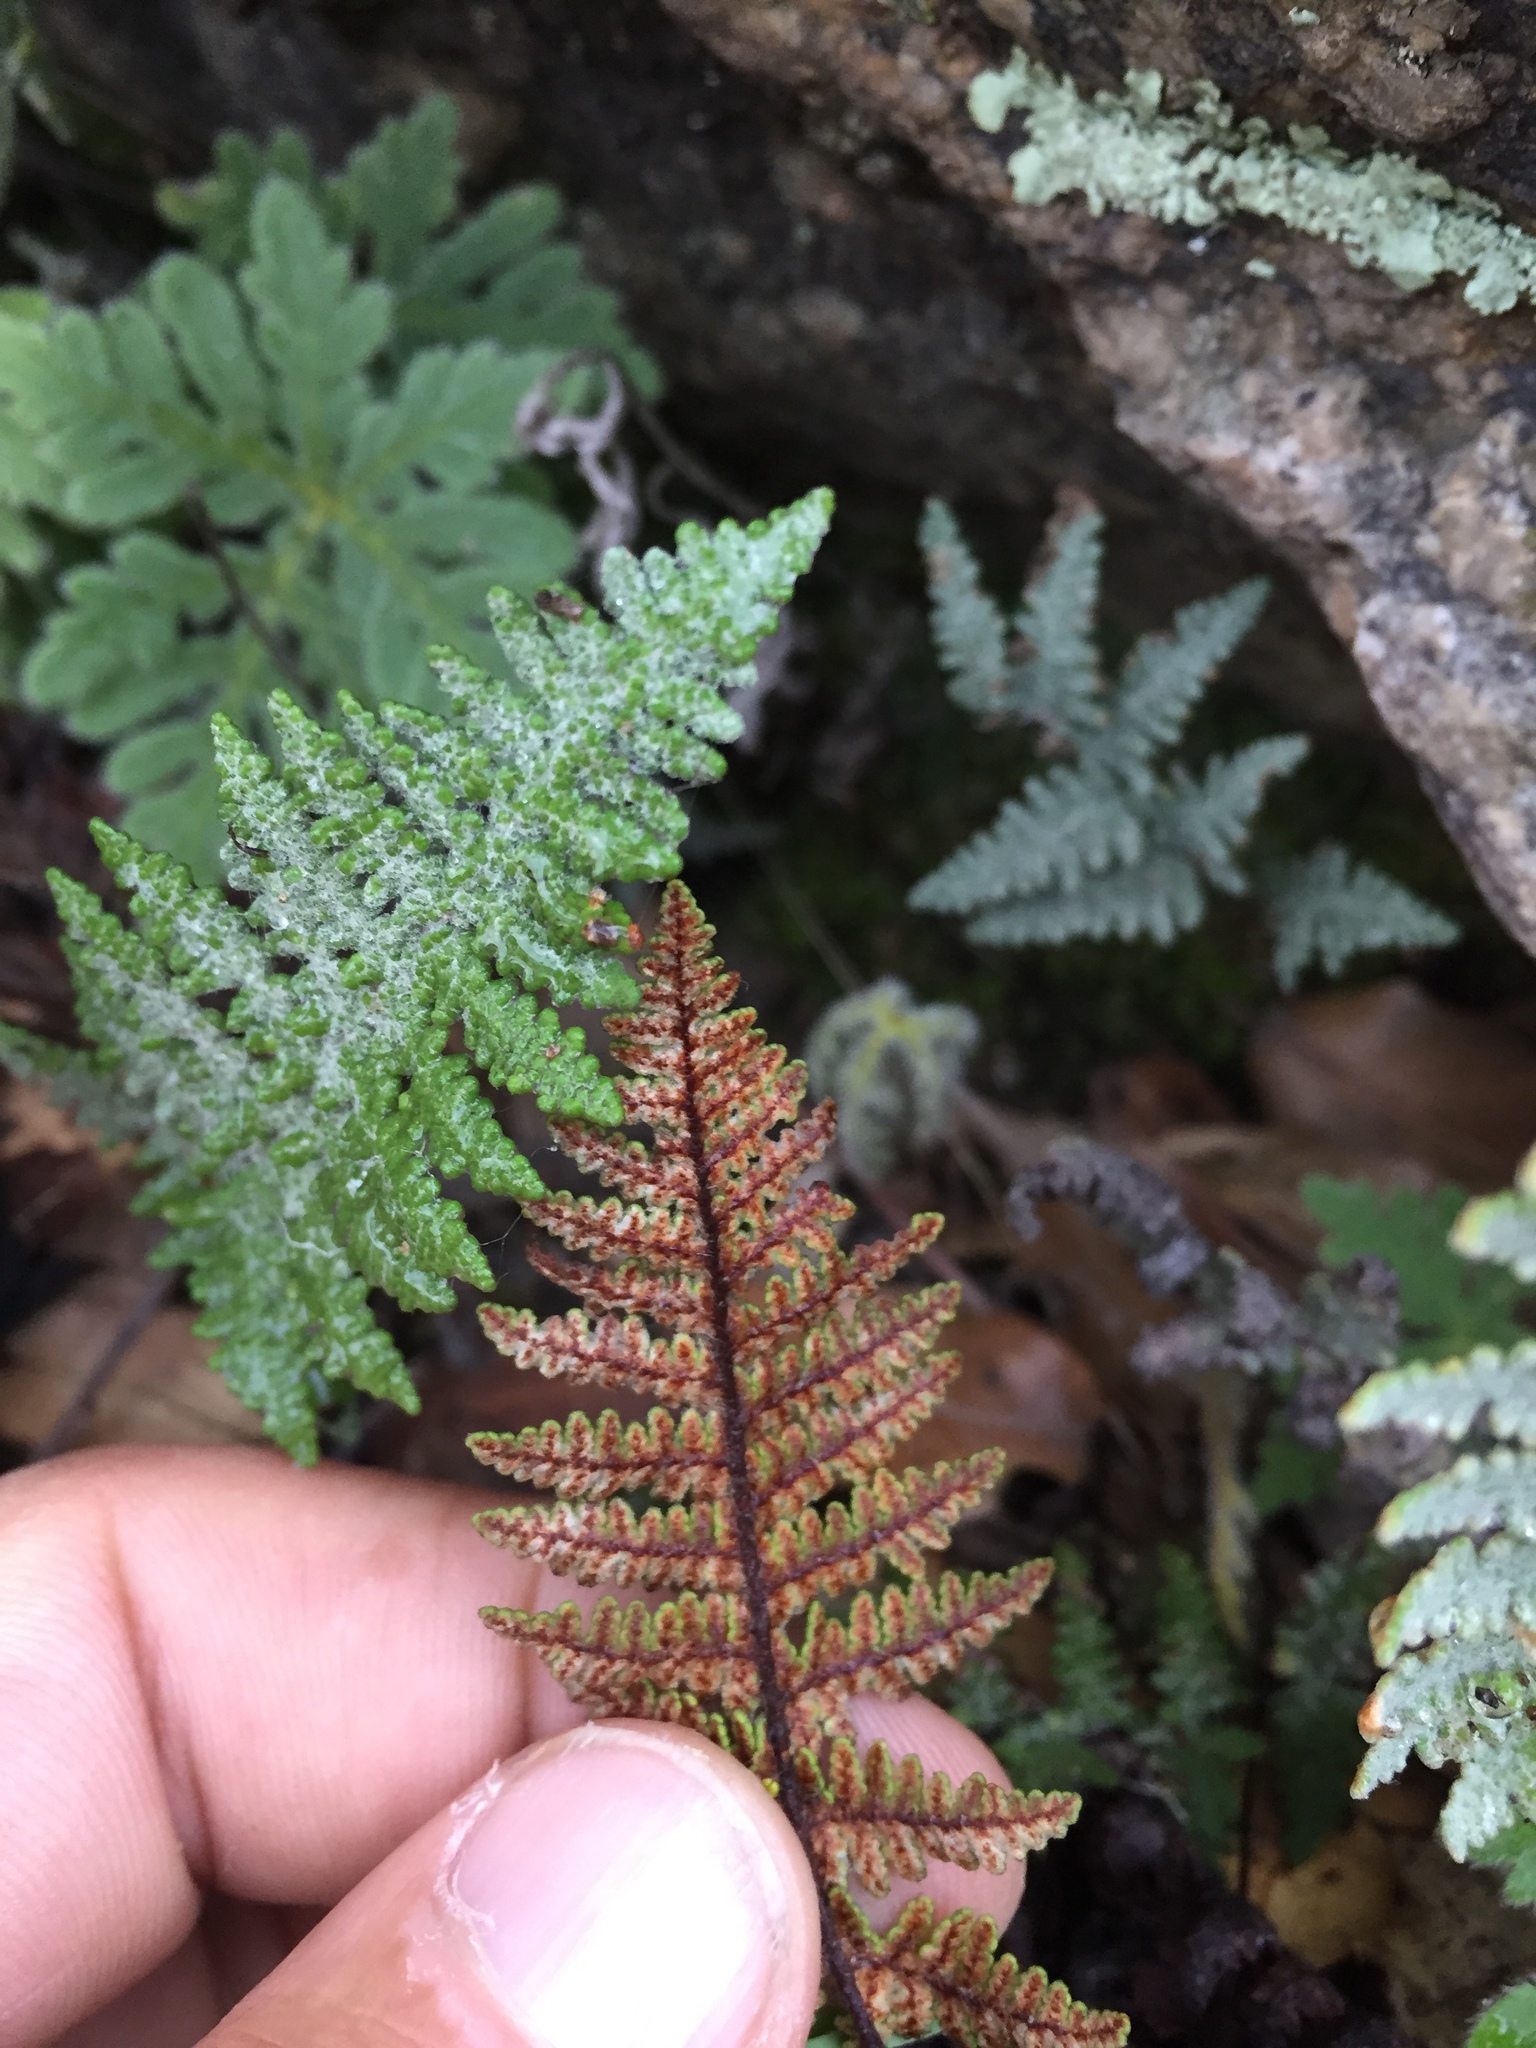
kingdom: Plantae
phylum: Tracheophyta
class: Polypodiopsida
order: Polypodiales
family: Pteridaceae
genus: Myriopteris
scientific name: Myriopteris lindheimeri
